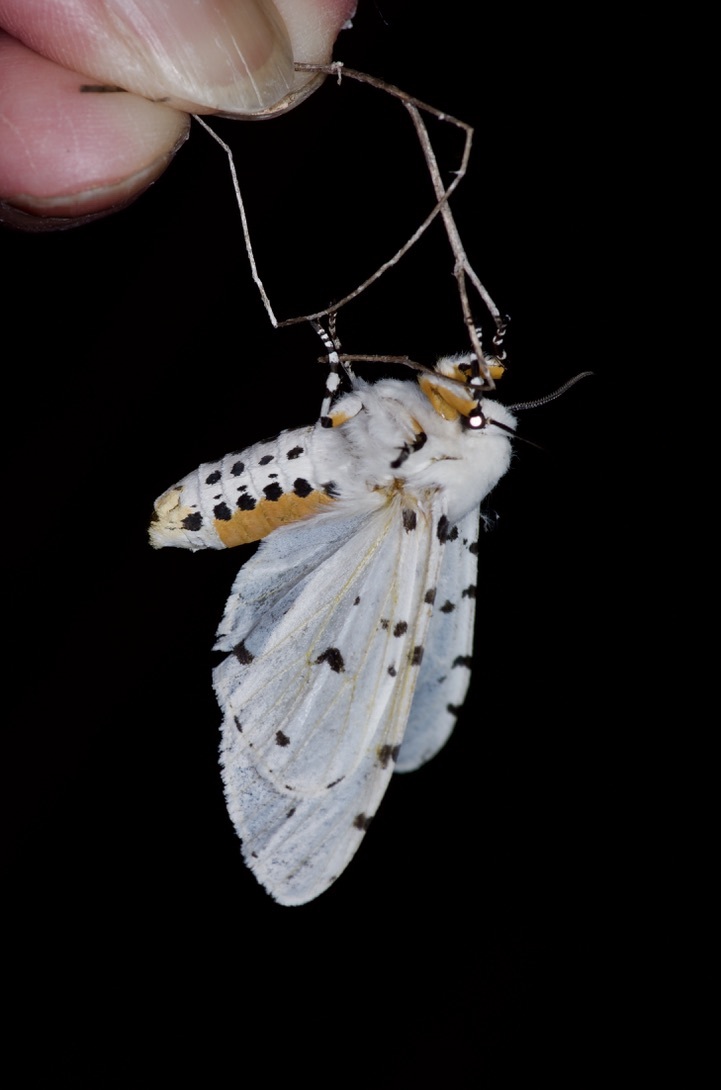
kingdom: Animalia
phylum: Arthropoda
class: Insecta
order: Lepidoptera
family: Erebidae
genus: Estigmene
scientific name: Estigmene acrea
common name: Salt marsh moth
